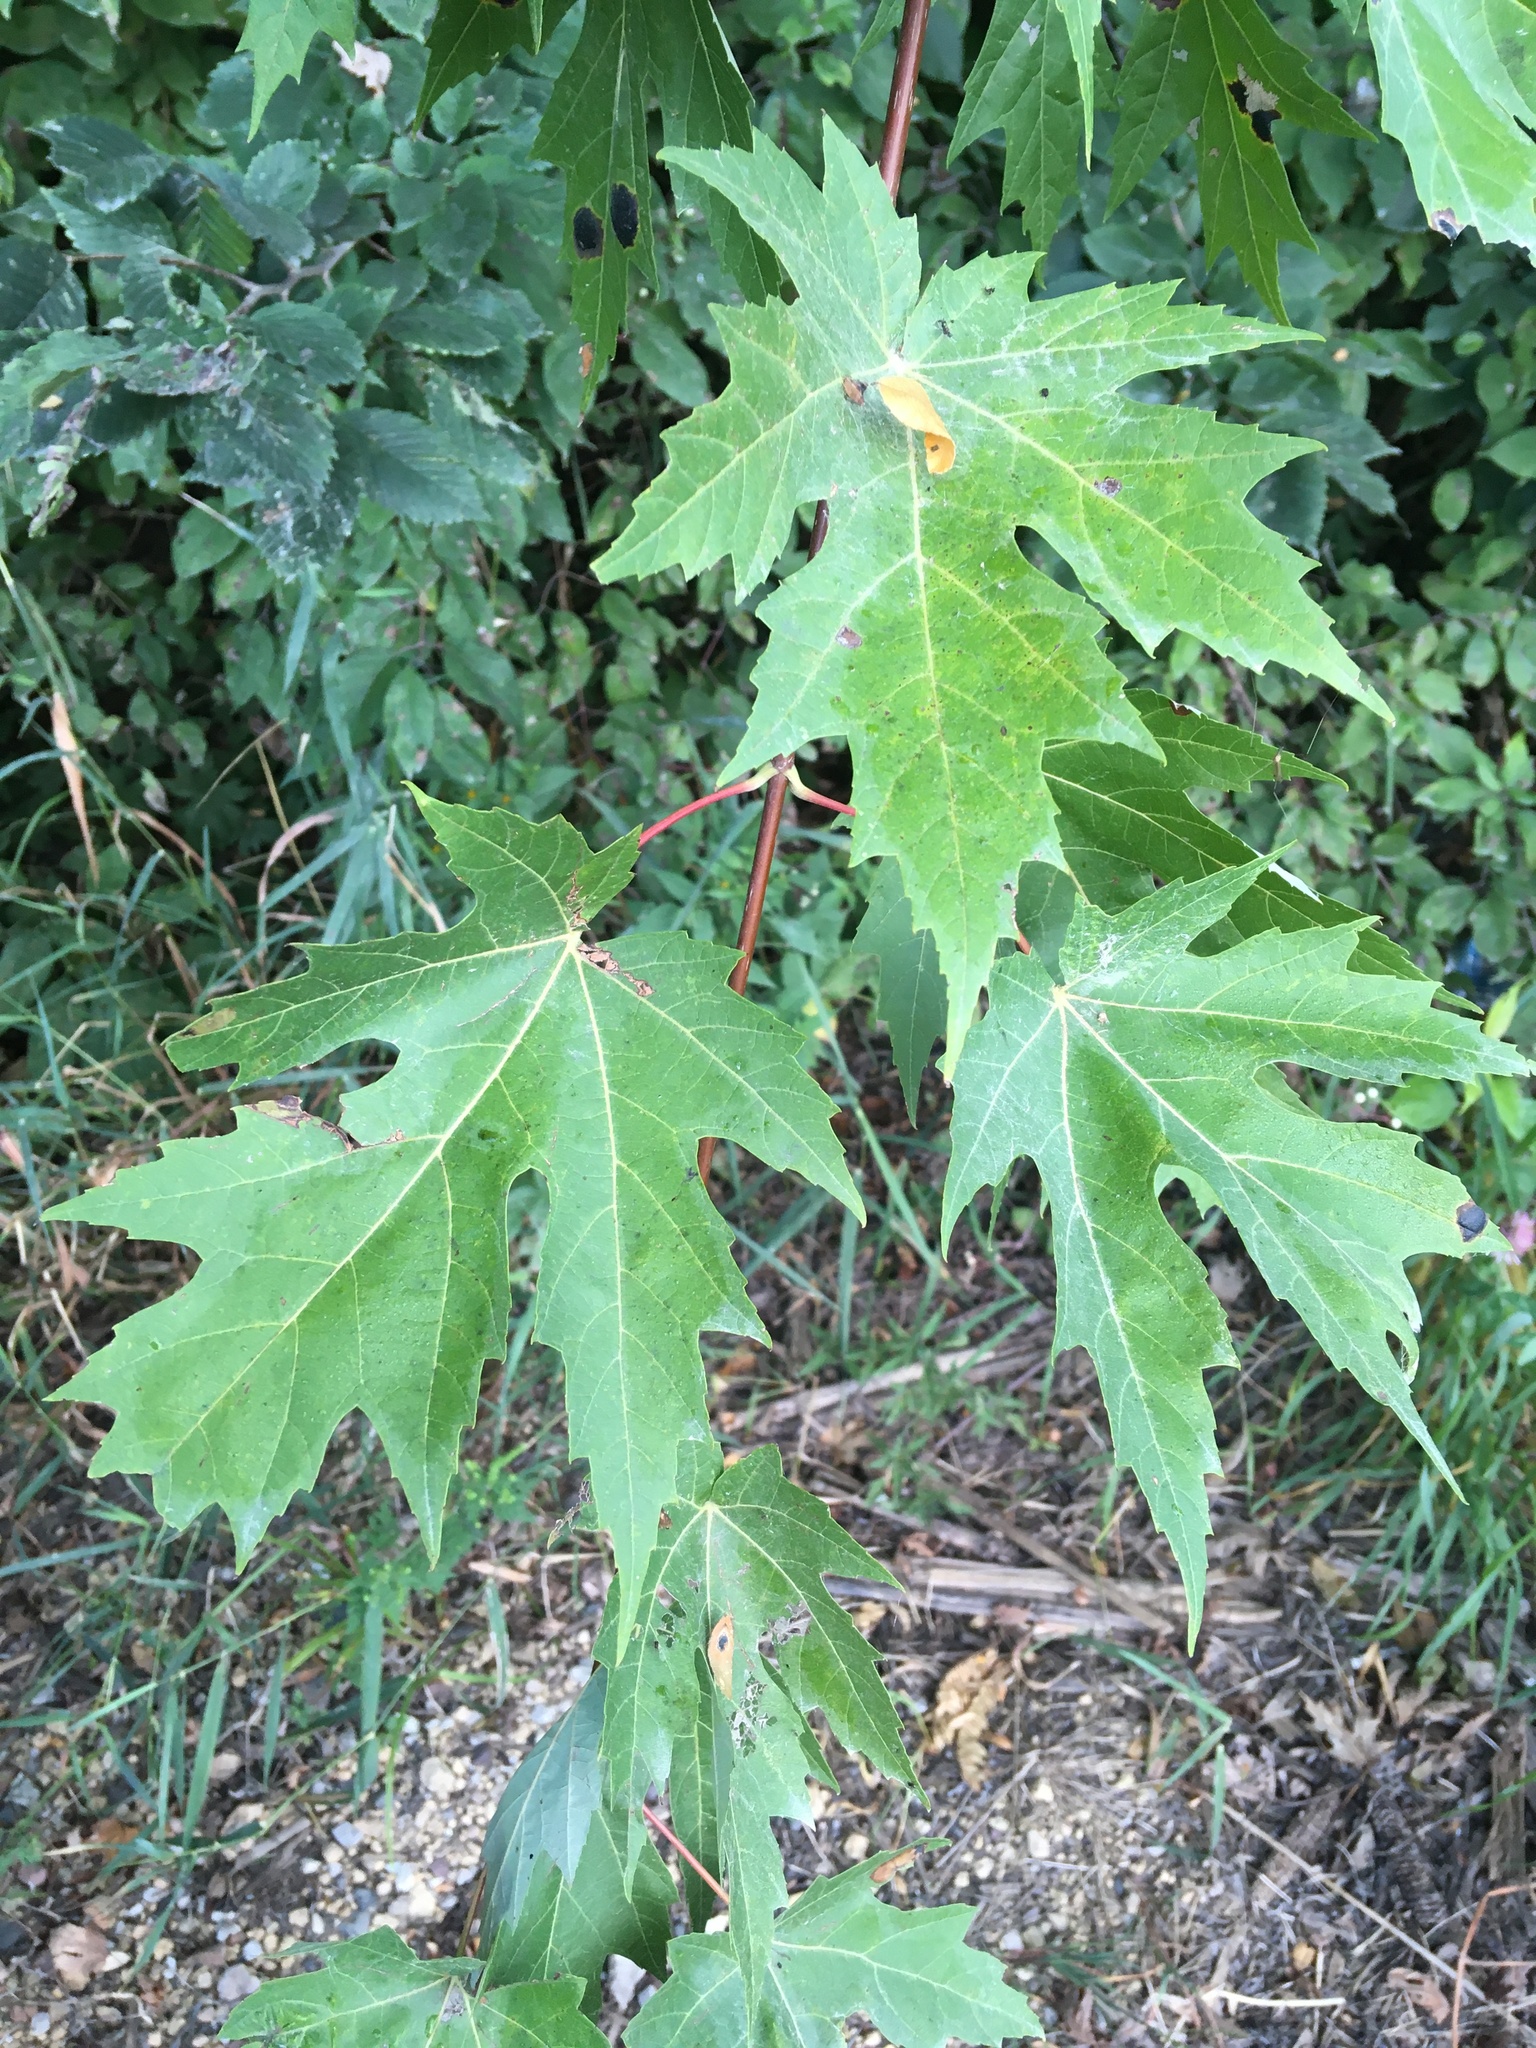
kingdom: Plantae
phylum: Tracheophyta
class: Magnoliopsida
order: Sapindales
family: Sapindaceae
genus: Acer
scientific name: Acer saccharinum
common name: Silver maple
